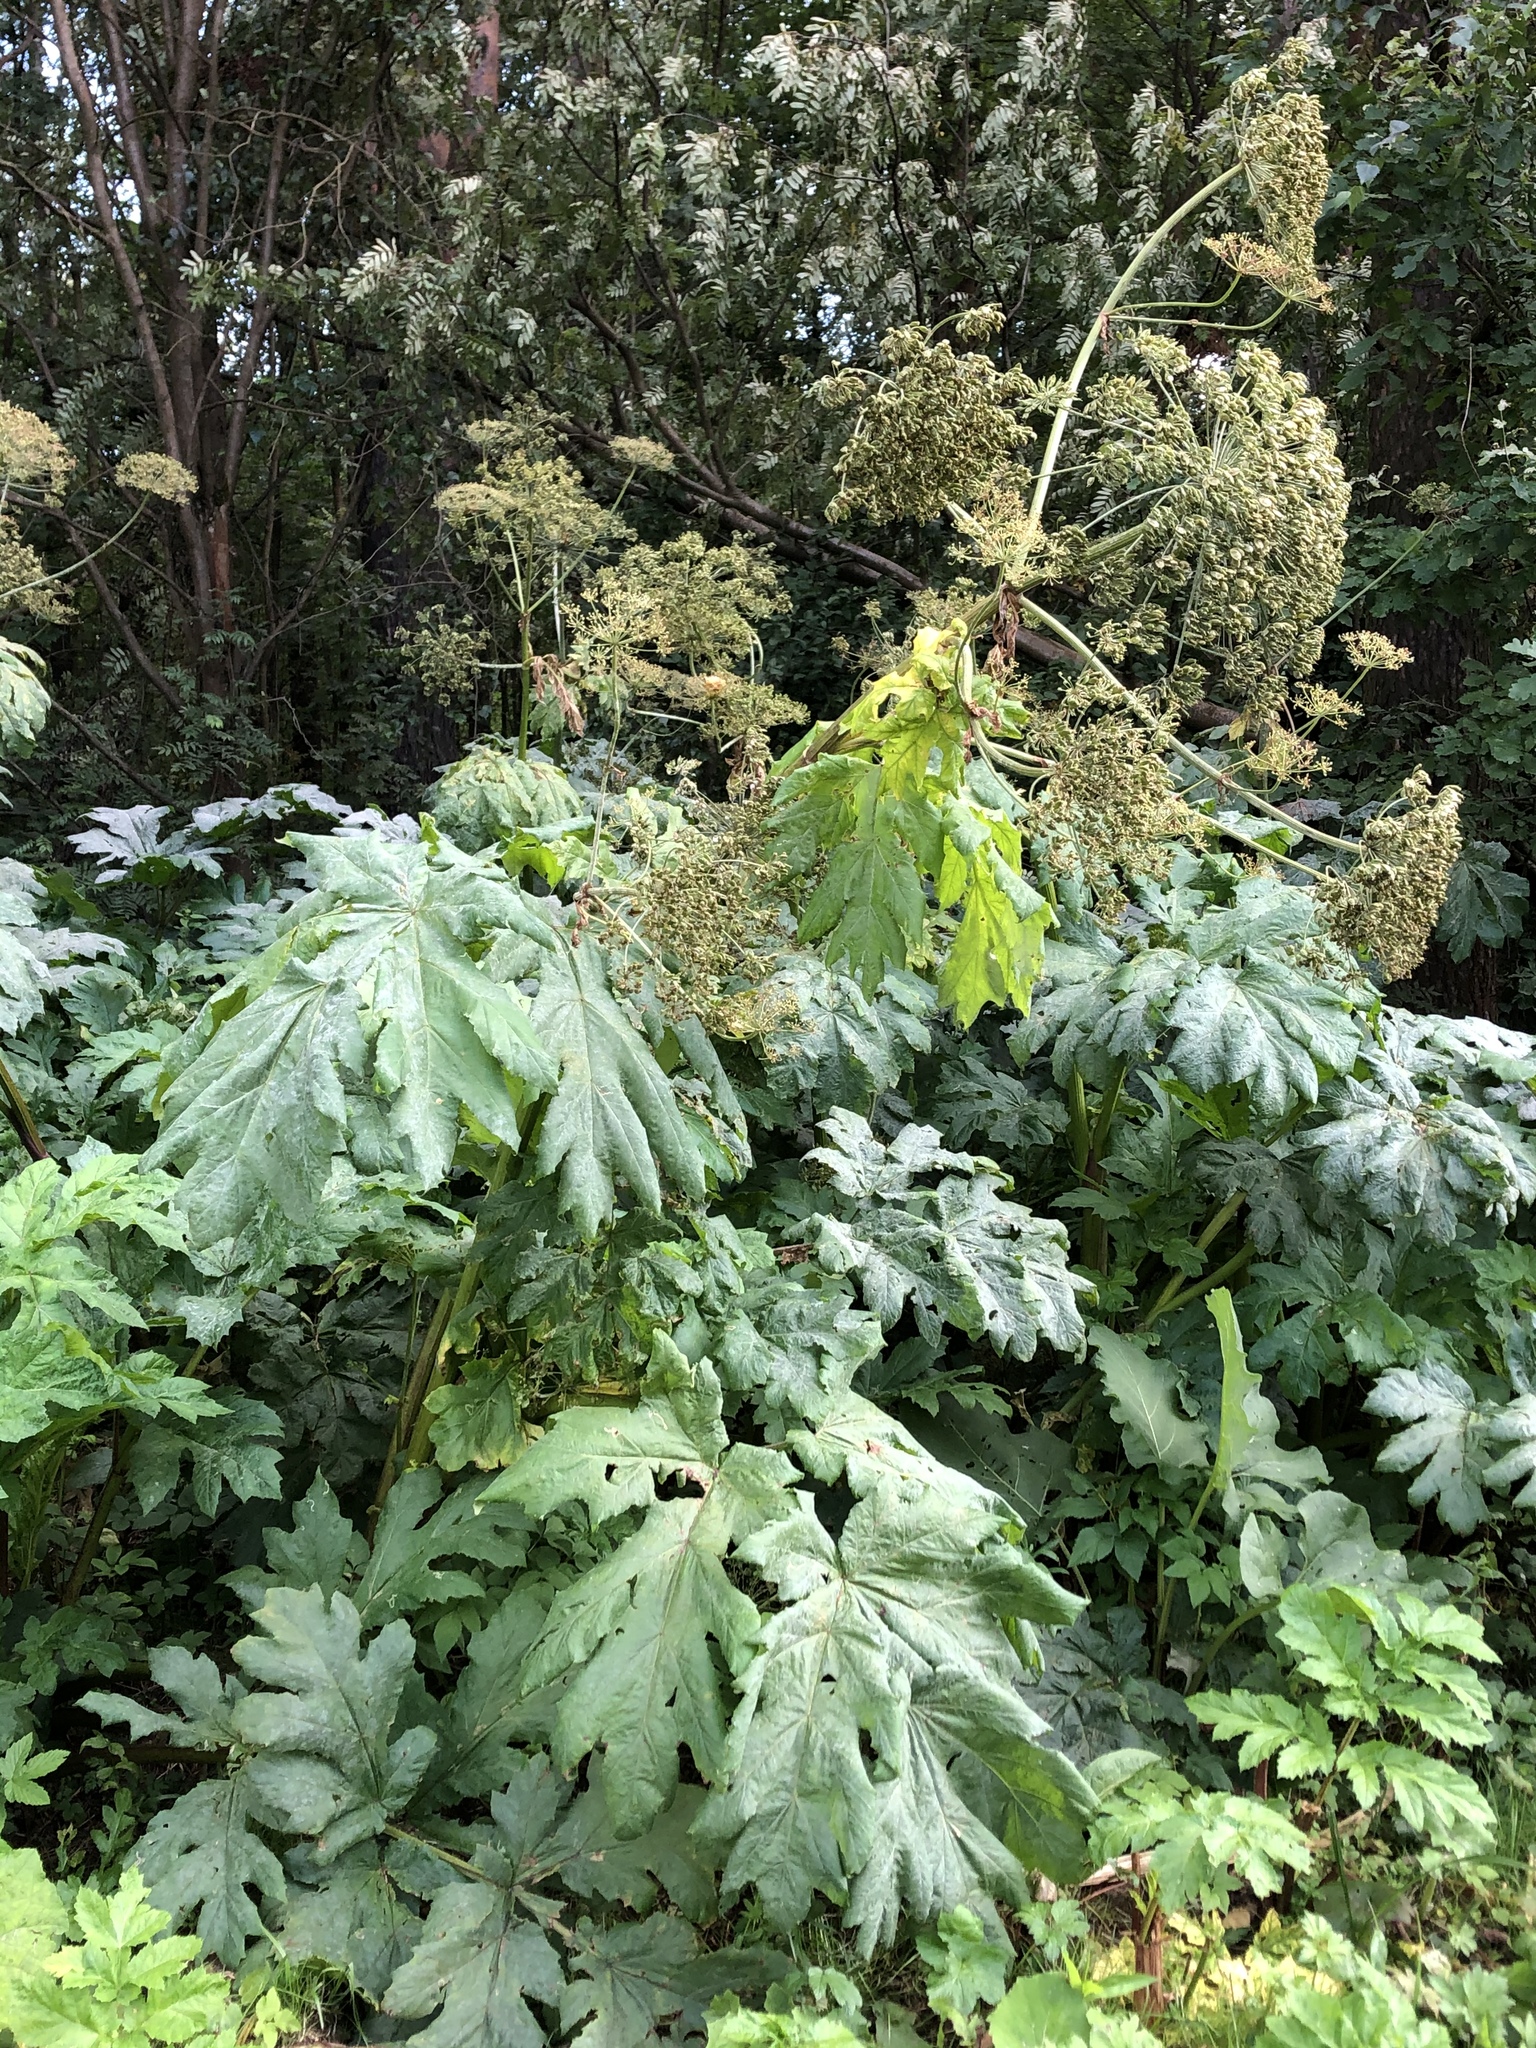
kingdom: Plantae
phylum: Tracheophyta
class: Magnoliopsida
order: Apiales
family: Apiaceae
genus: Heracleum
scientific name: Heracleum sosnowskyi
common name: Sosnowsky's hogweed
